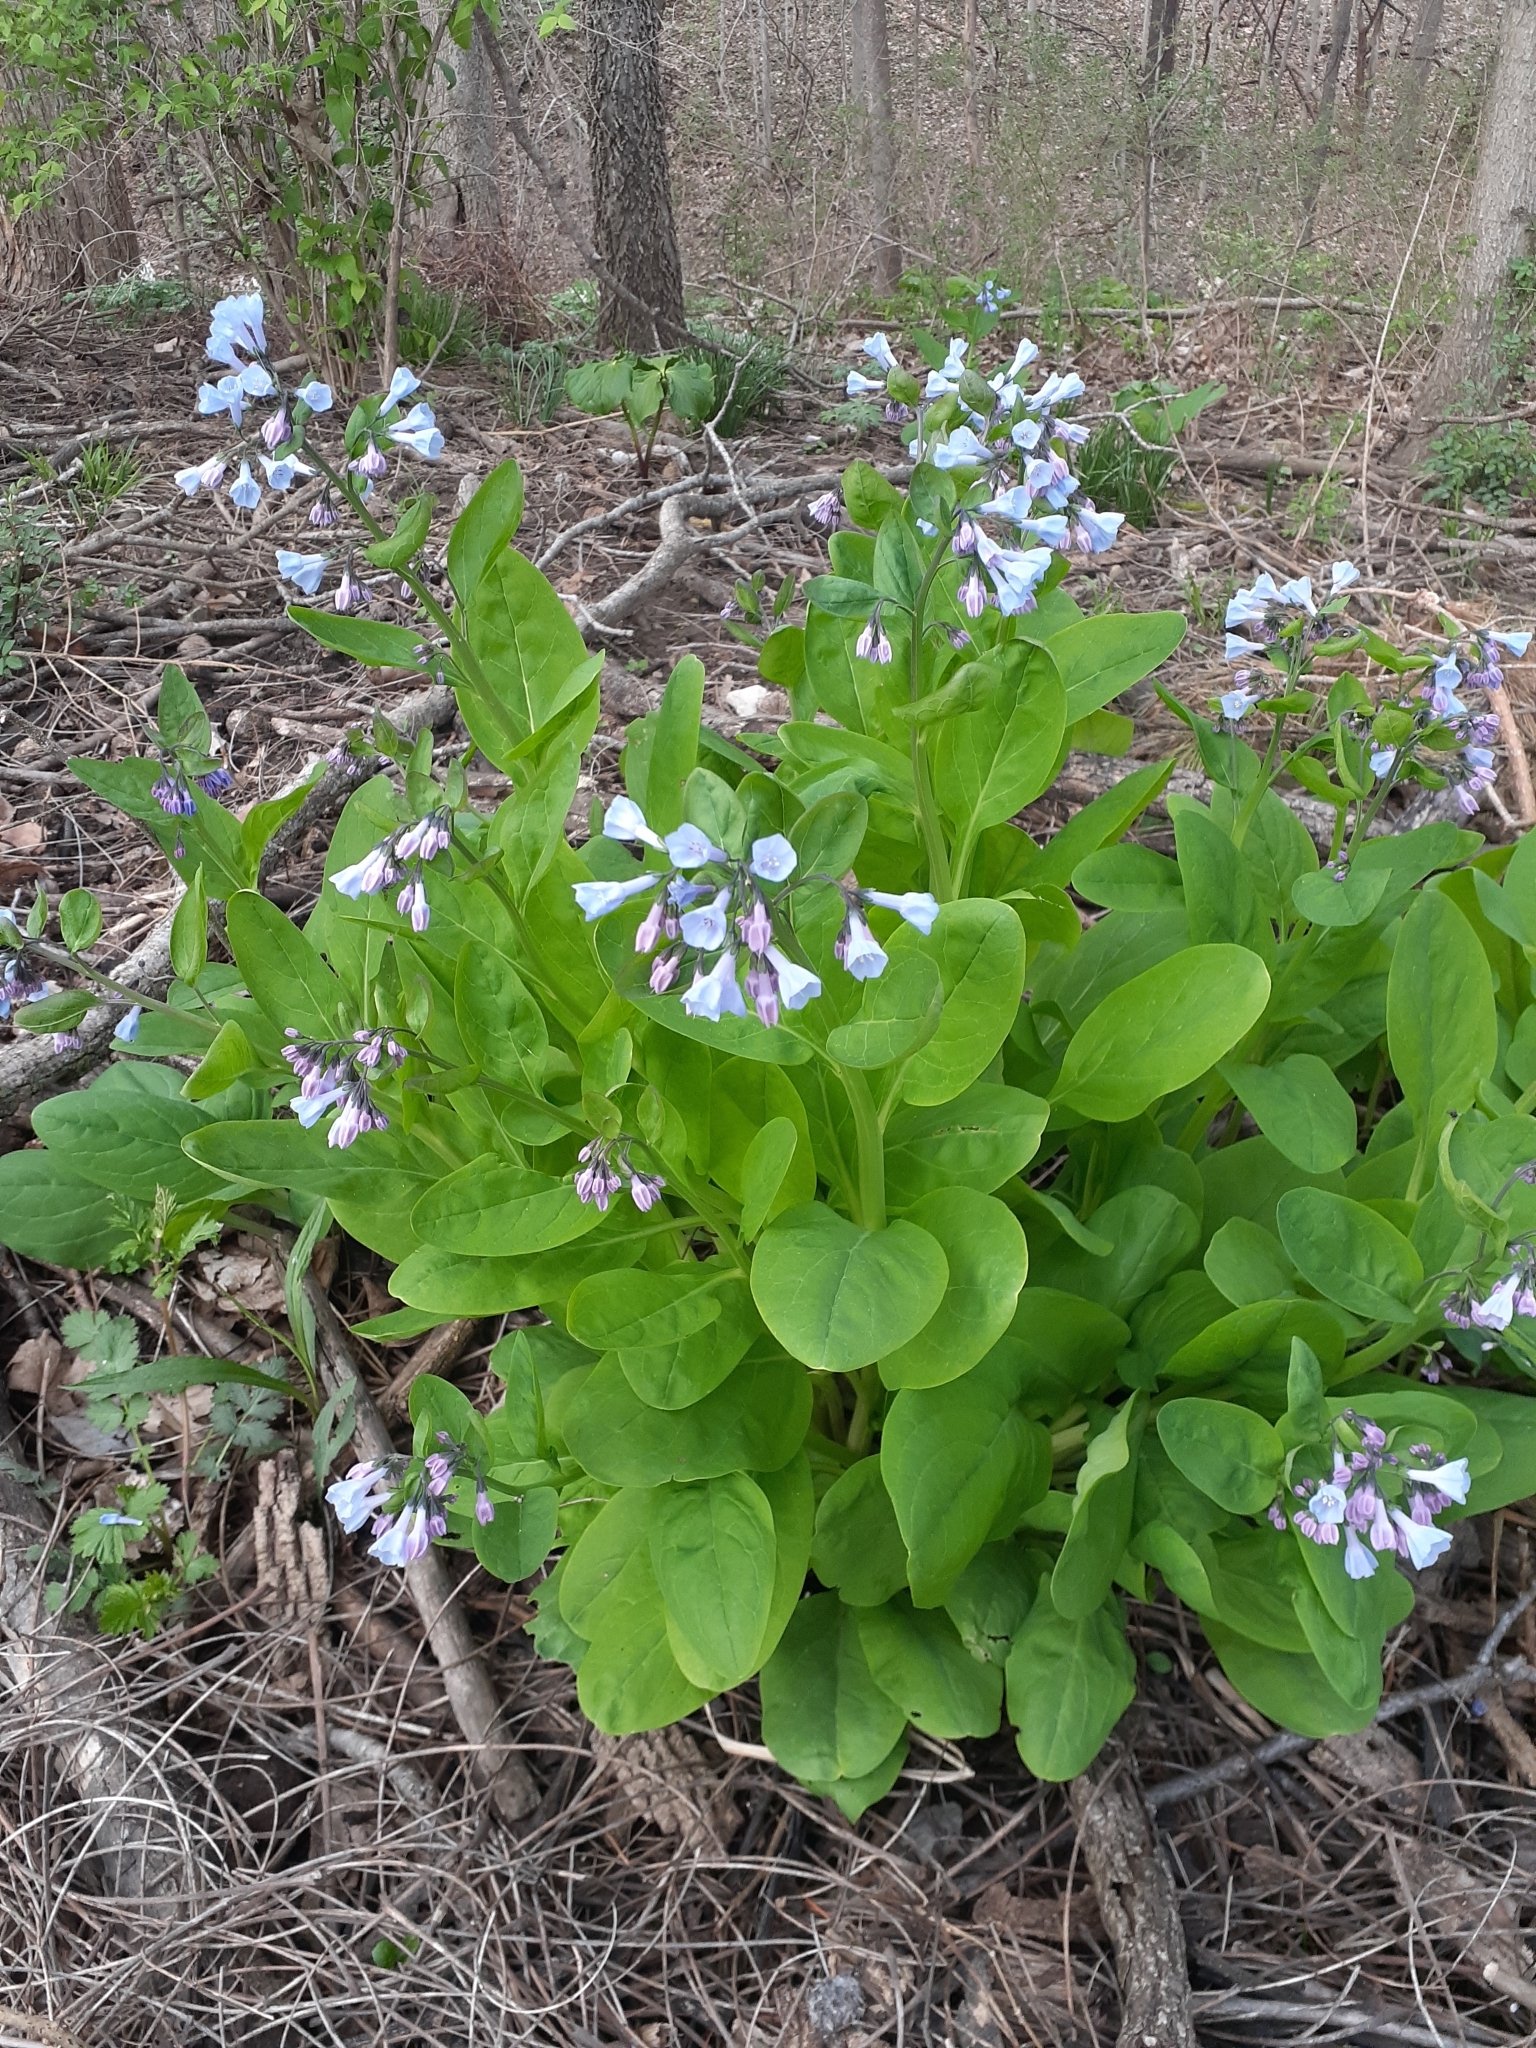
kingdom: Plantae
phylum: Tracheophyta
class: Magnoliopsida
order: Boraginales
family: Boraginaceae
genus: Mertensia
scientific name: Mertensia virginica
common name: Virginia bluebells
